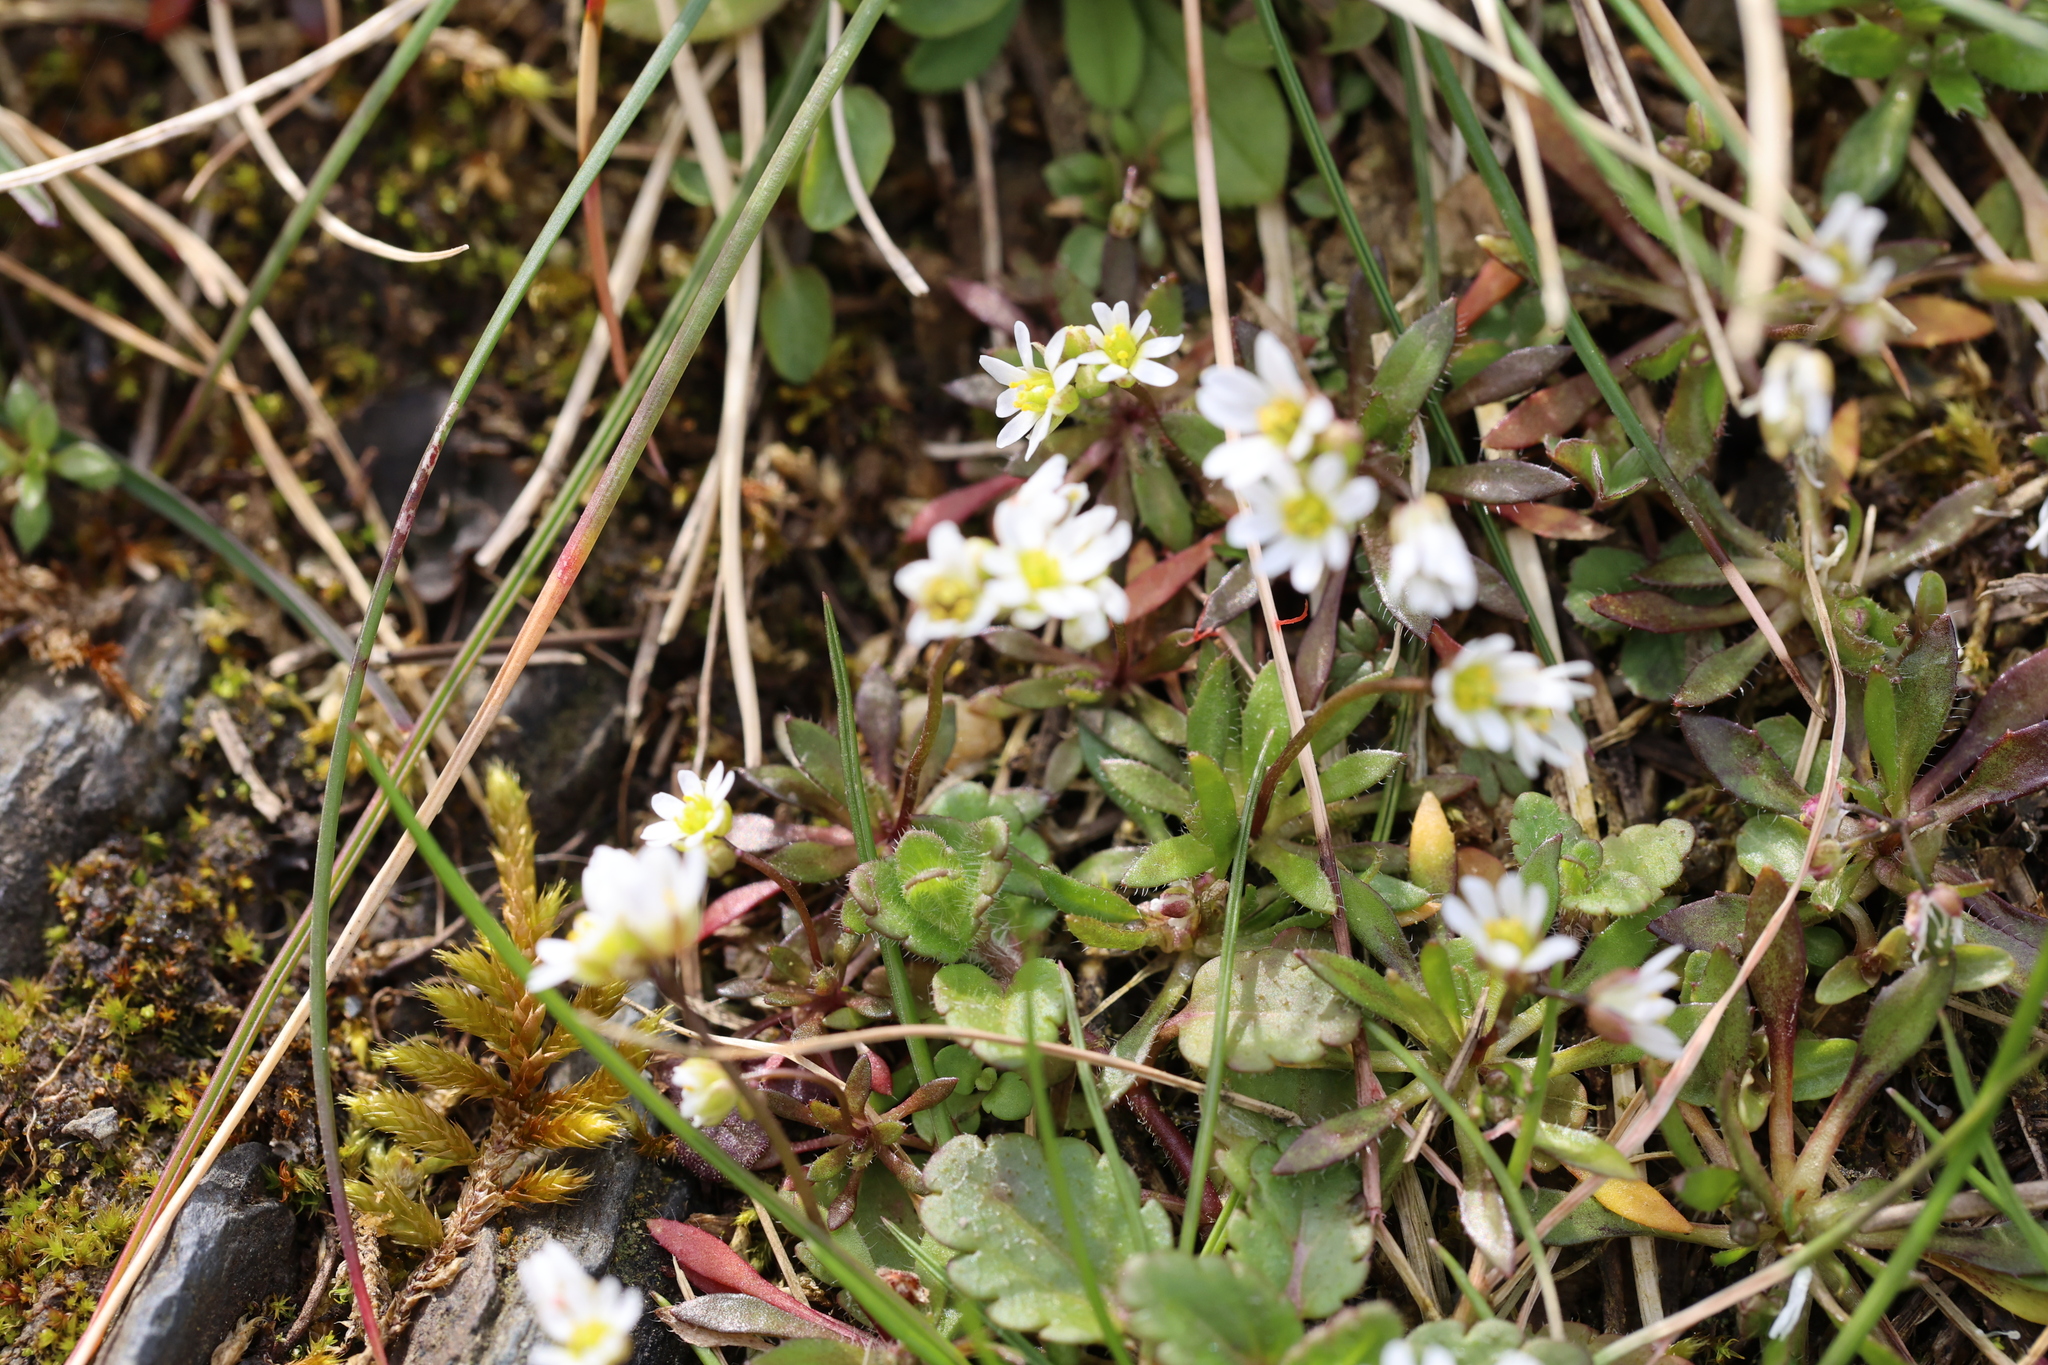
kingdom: Plantae
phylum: Tracheophyta
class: Magnoliopsida
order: Brassicales
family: Brassicaceae
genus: Draba
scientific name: Draba verna
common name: Spring draba
